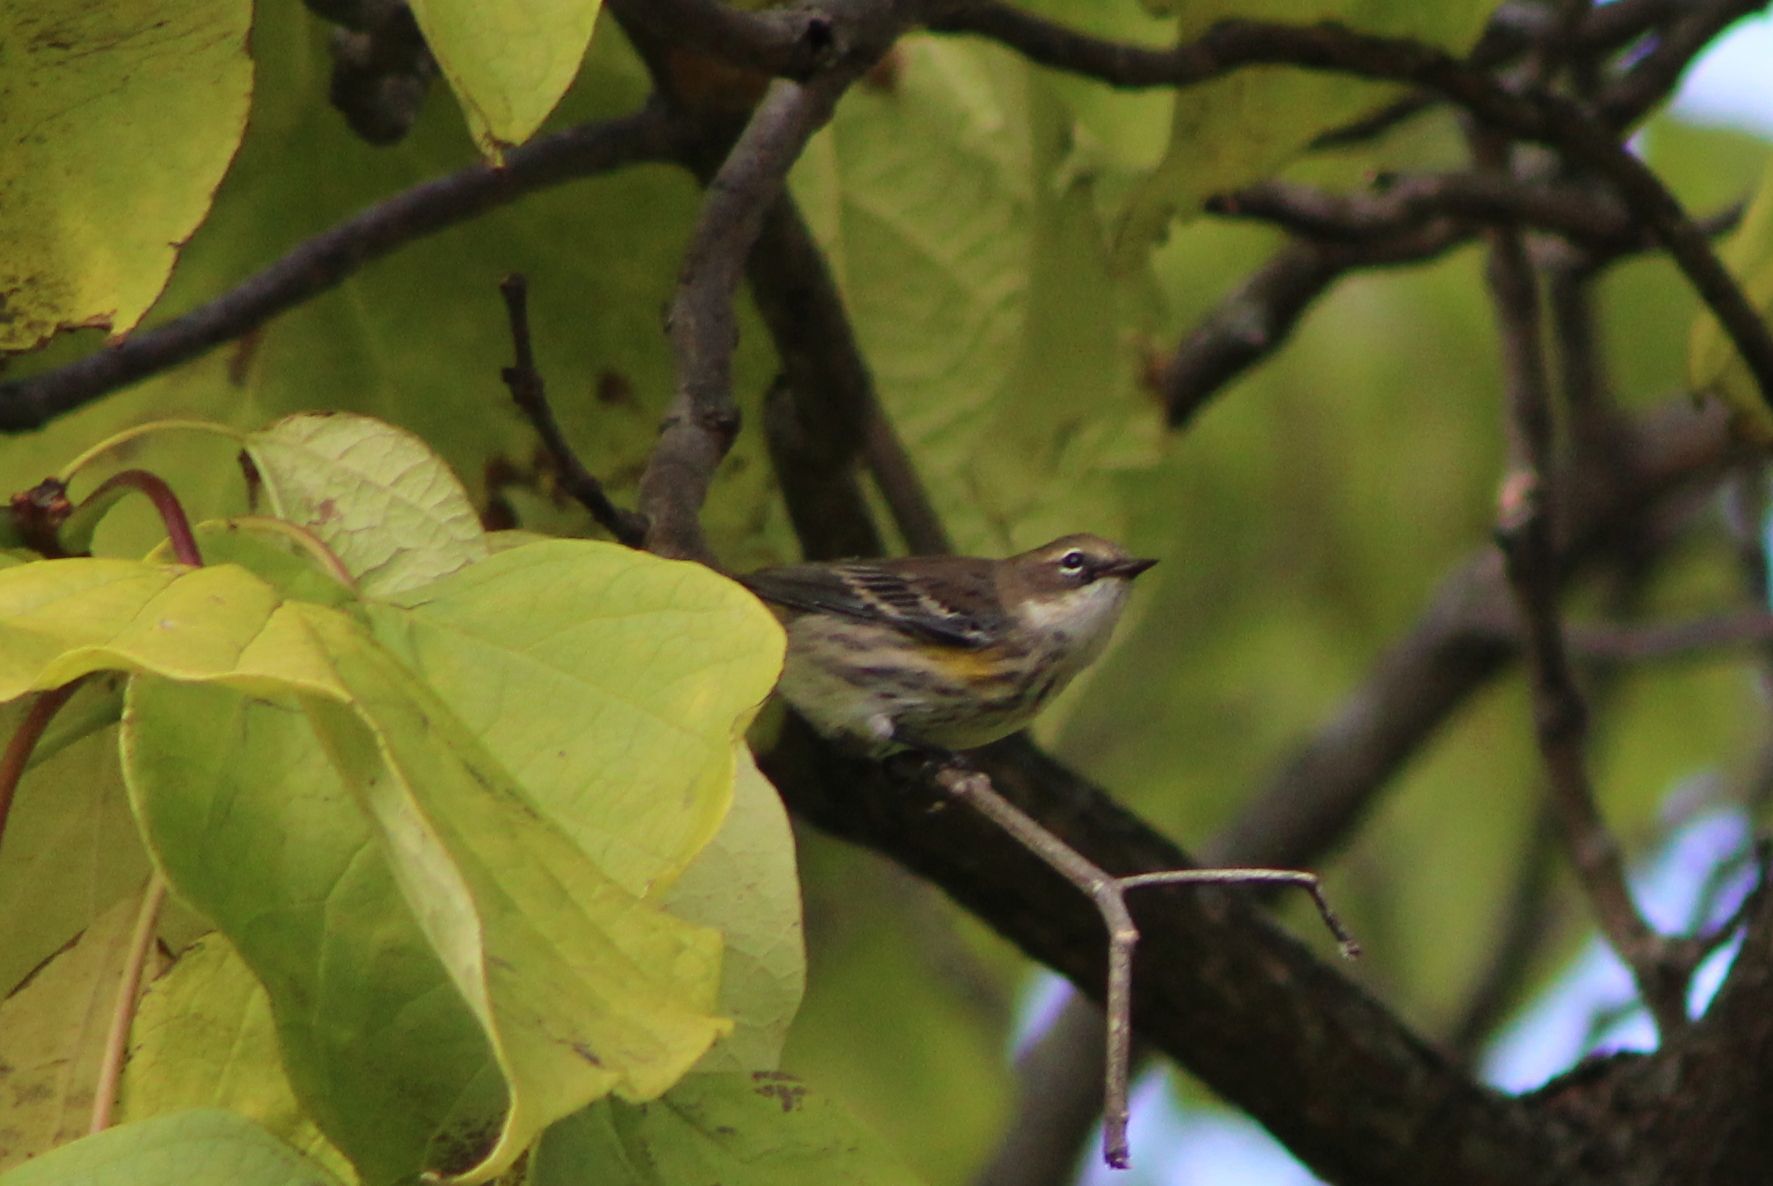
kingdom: Animalia
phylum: Chordata
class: Aves
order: Passeriformes
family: Parulidae
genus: Setophaga
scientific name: Setophaga coronata
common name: Myrtle warbler
